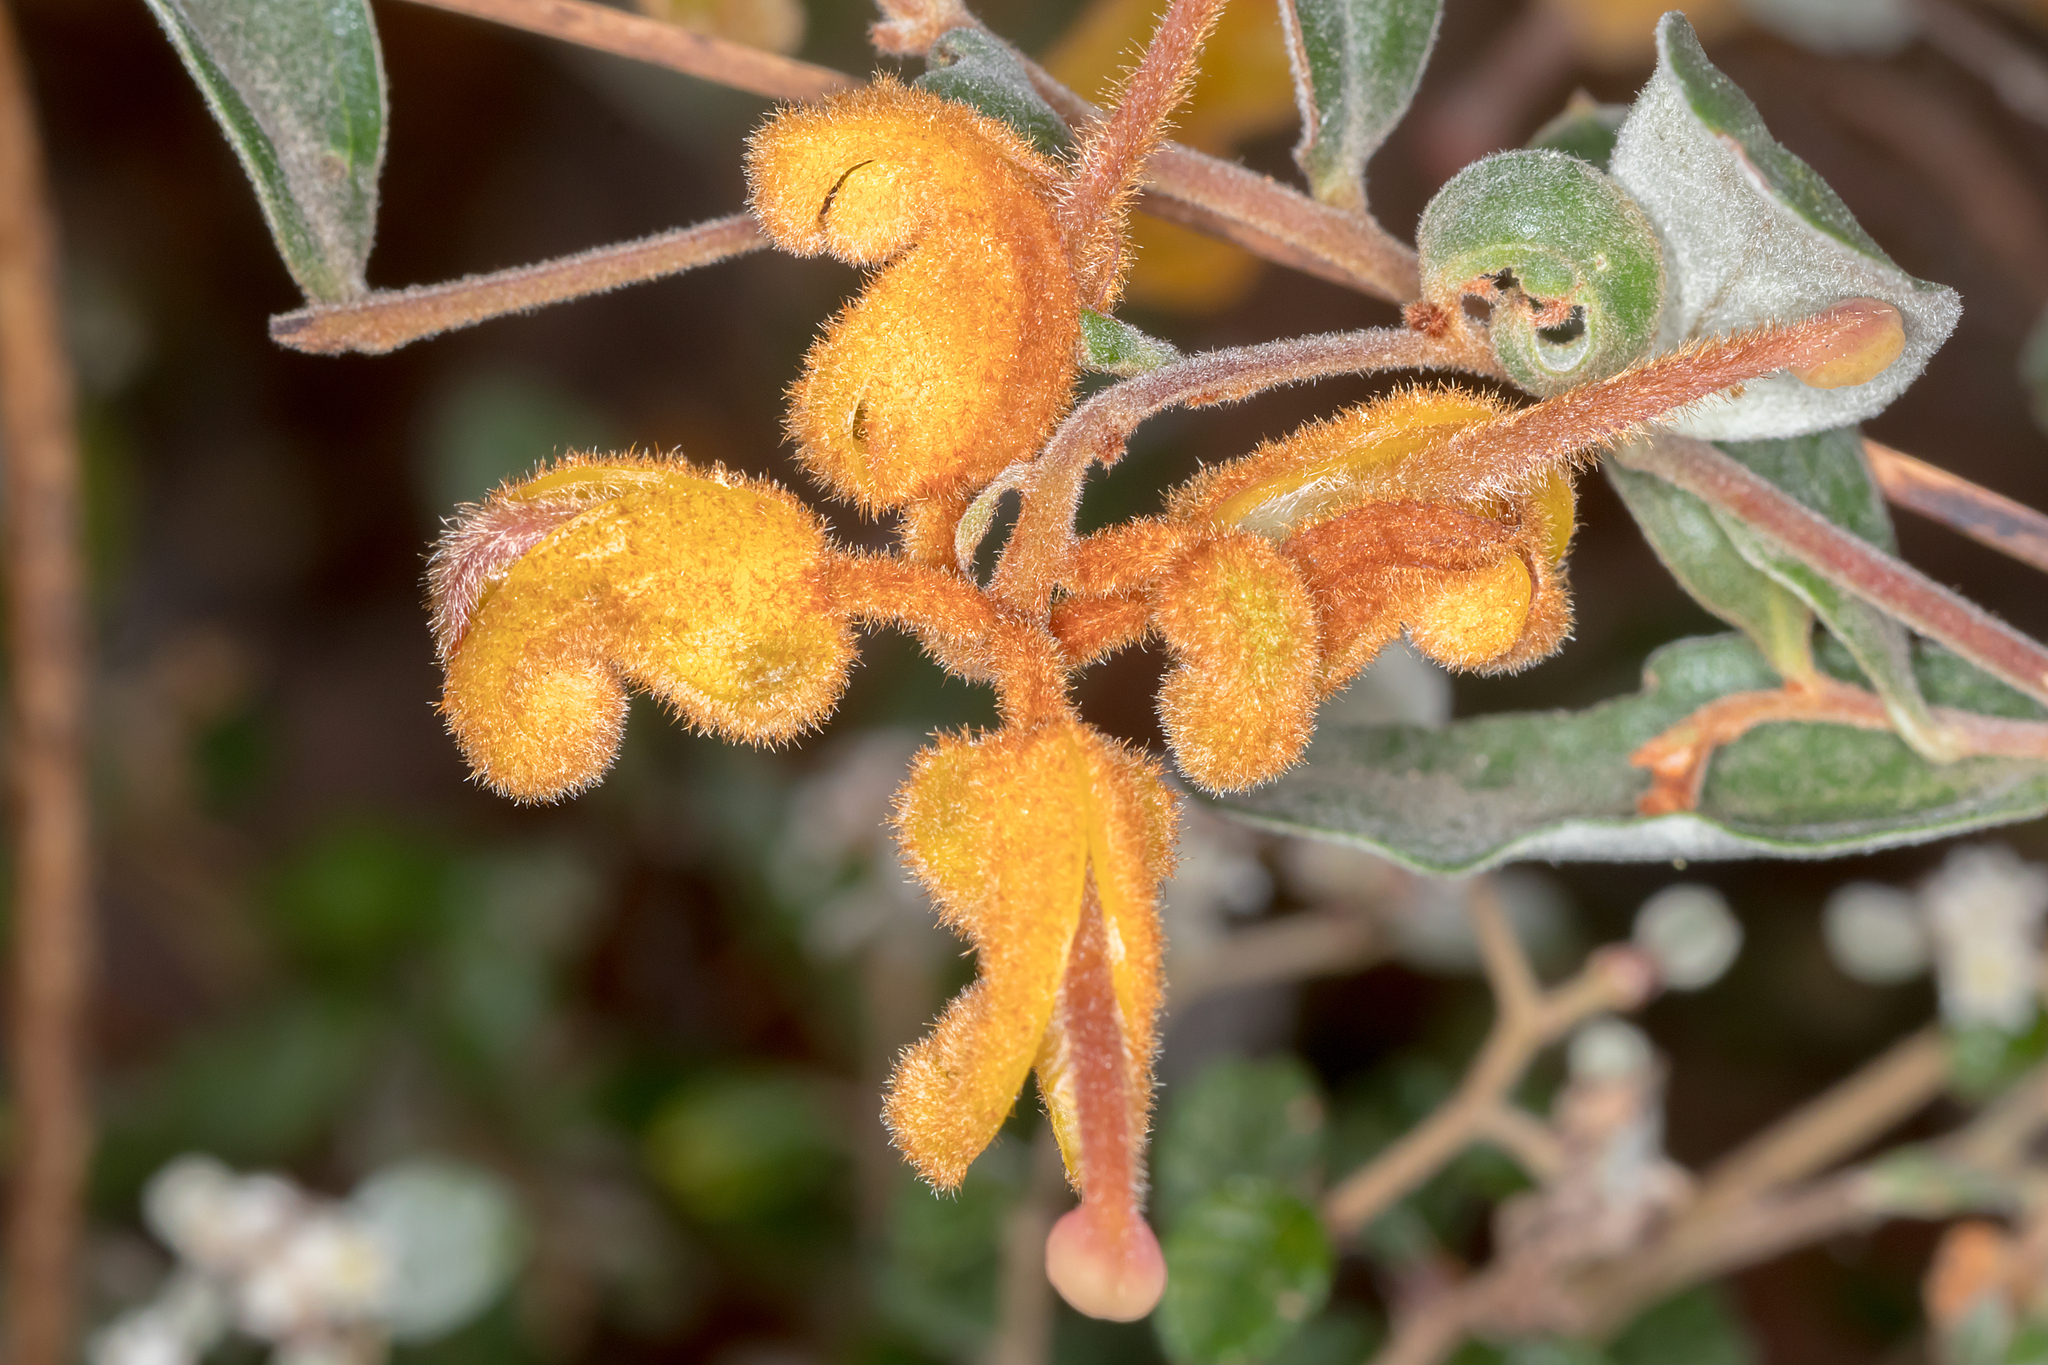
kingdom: Plantae
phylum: Tracheophyta
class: Magnoliopsida
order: Proteales
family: Proteaceae
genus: Grevillea
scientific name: Grevillea chrysophaea
